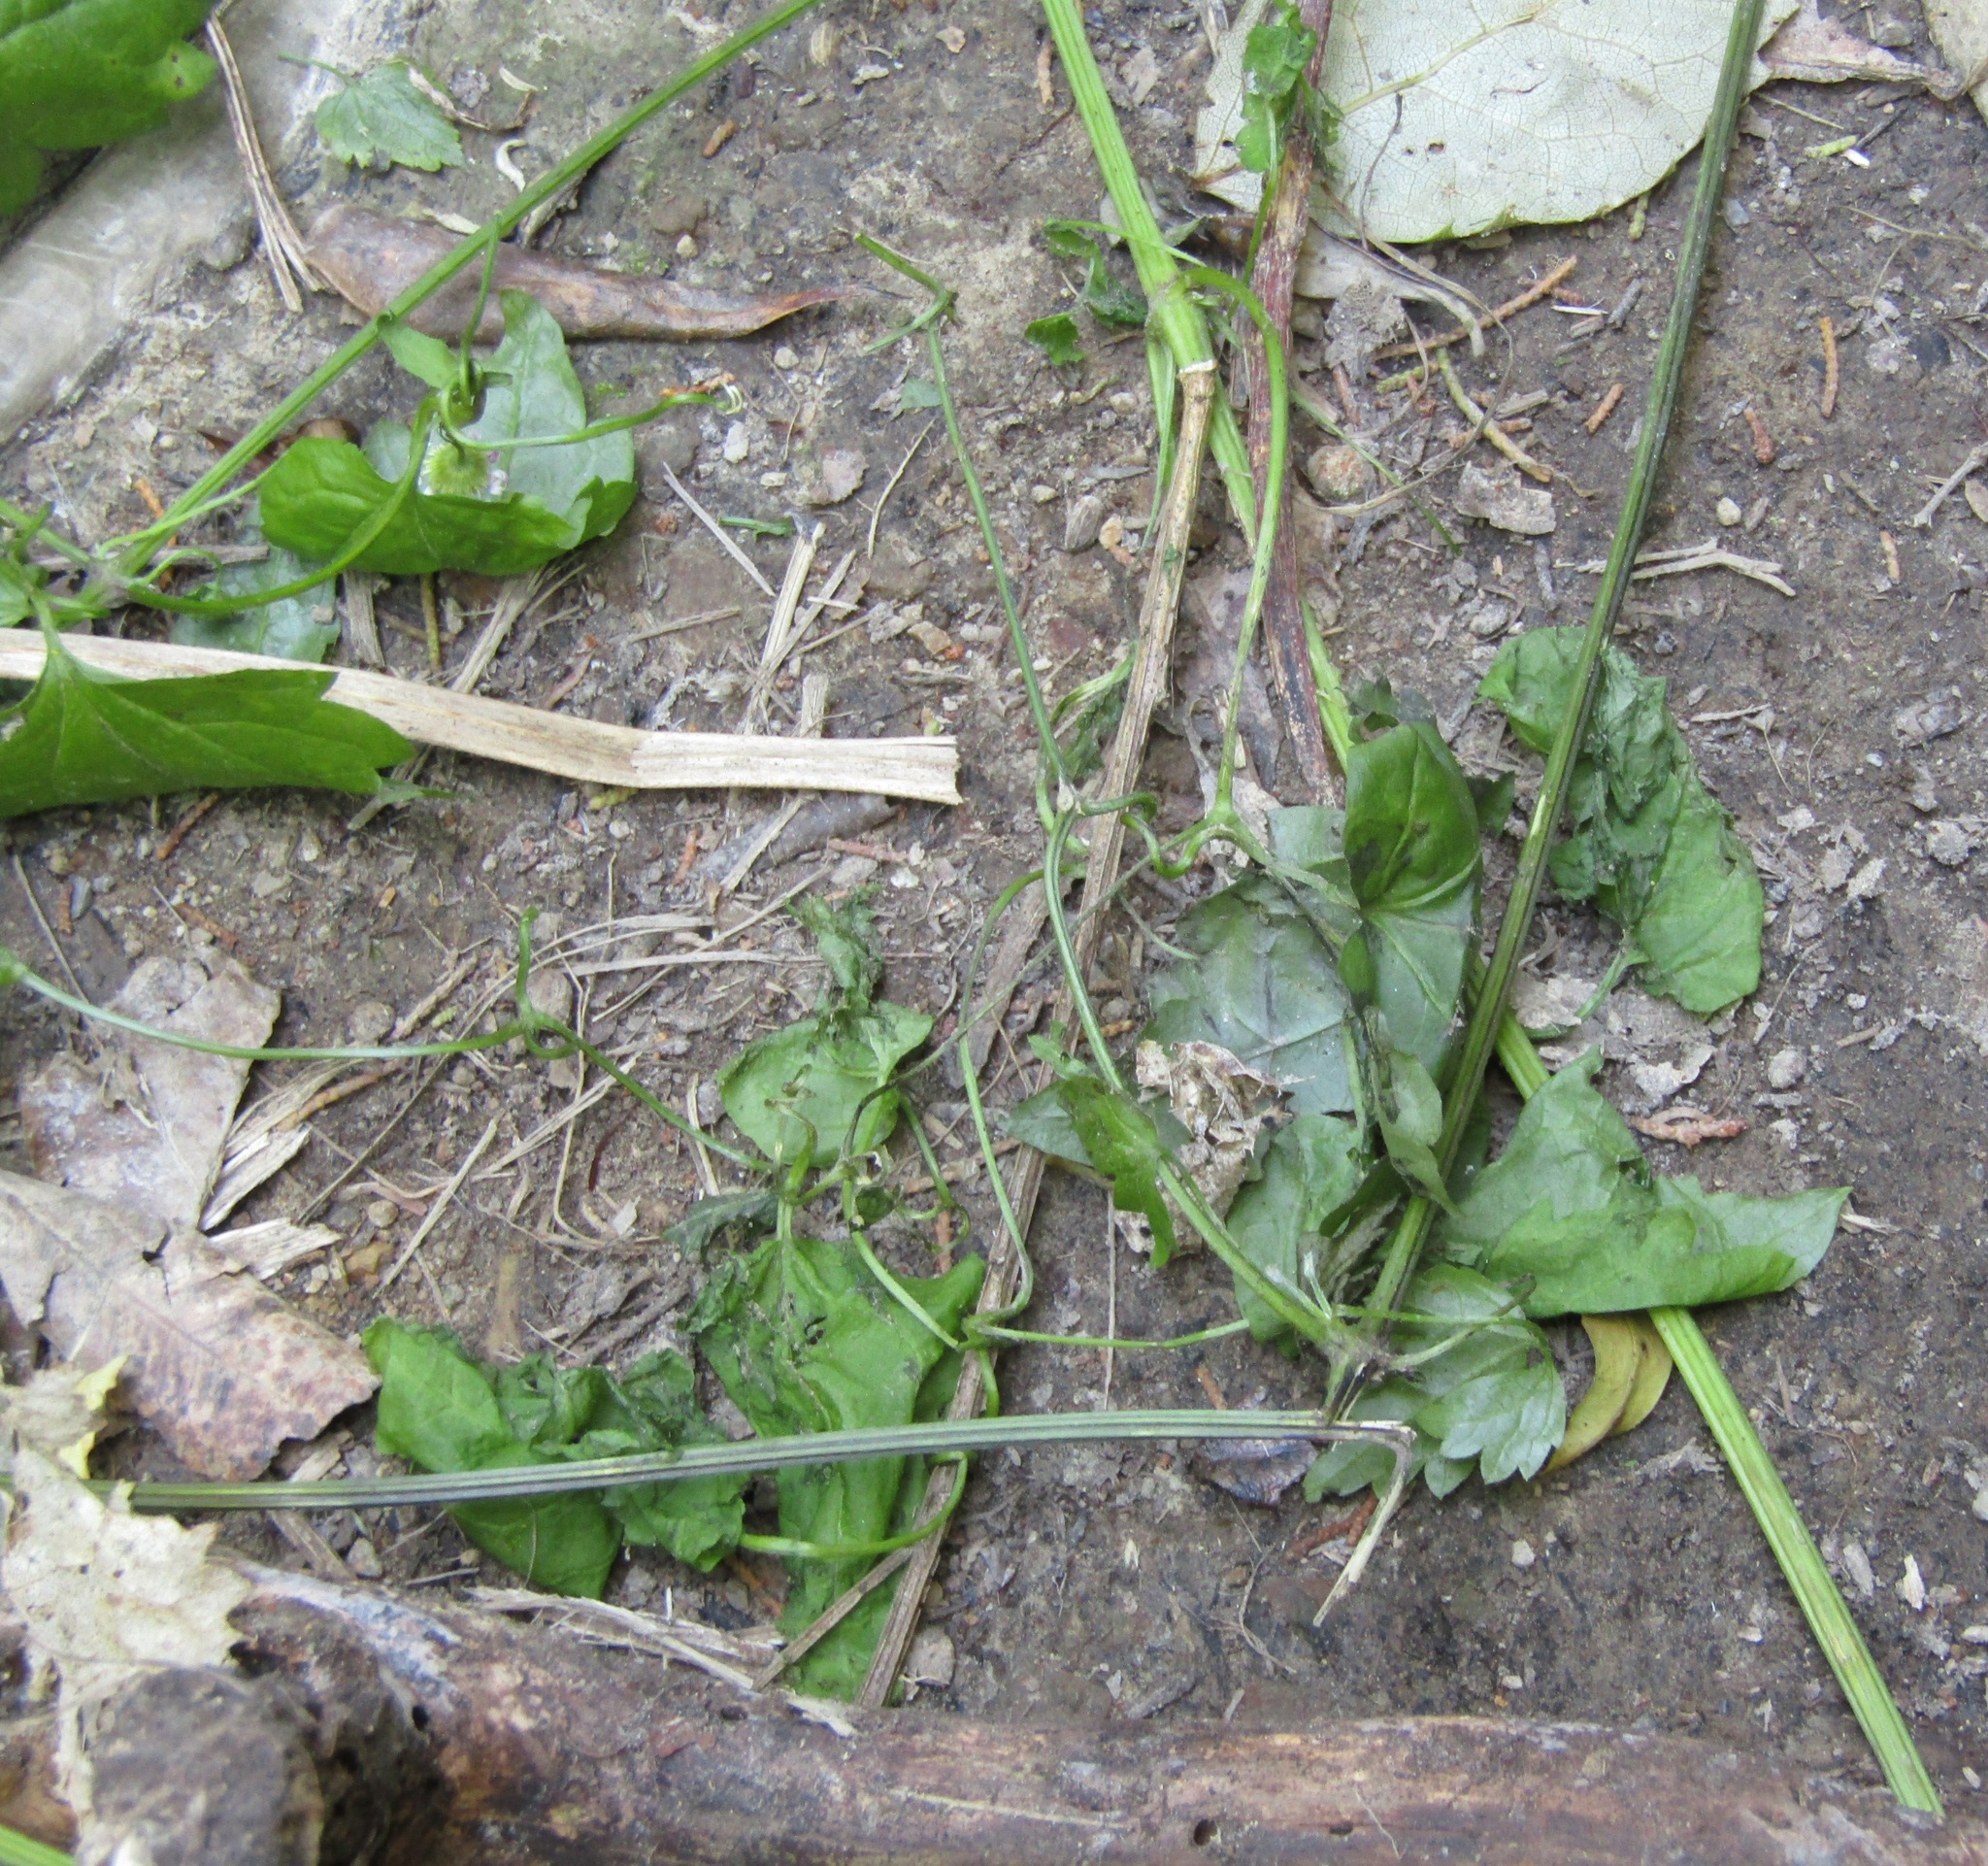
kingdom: Plantae
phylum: Tracheophyta
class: Magnoliopsida
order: Ranunculales
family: Ranunculaceae
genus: Clematis
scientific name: Clematis vitalba
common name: Evergreen clematis
